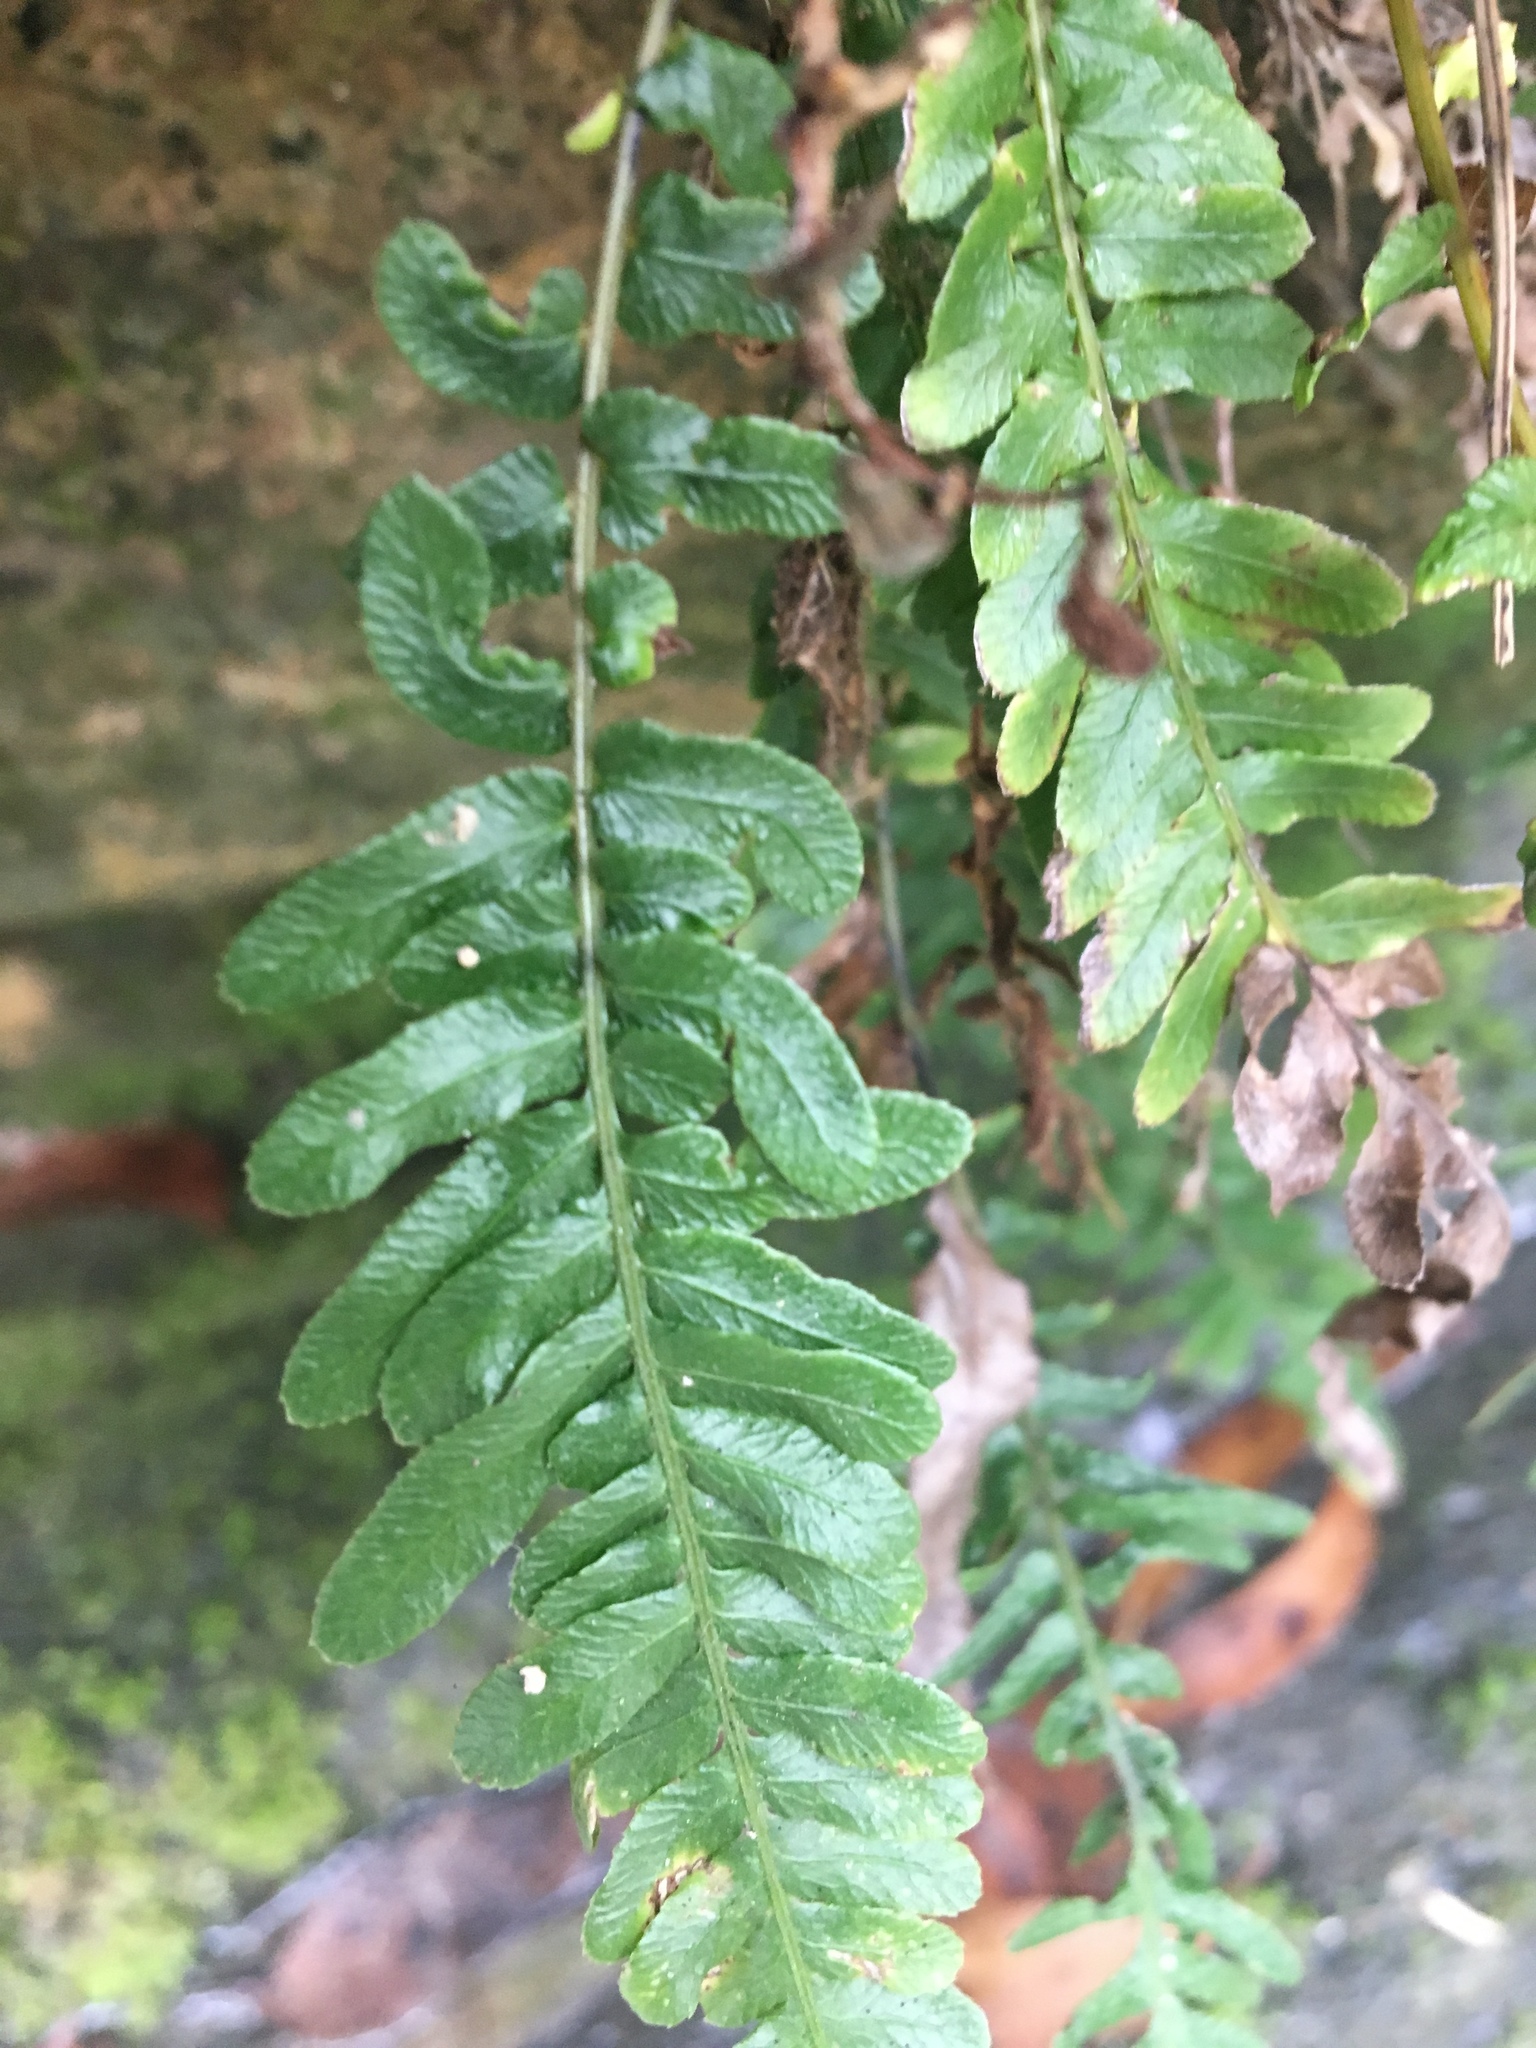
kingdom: Plantae
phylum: Tracheophyta
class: Polypodiopsida
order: Polypodiales
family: Blechnaceae
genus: Doodia
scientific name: Doodia caudata
